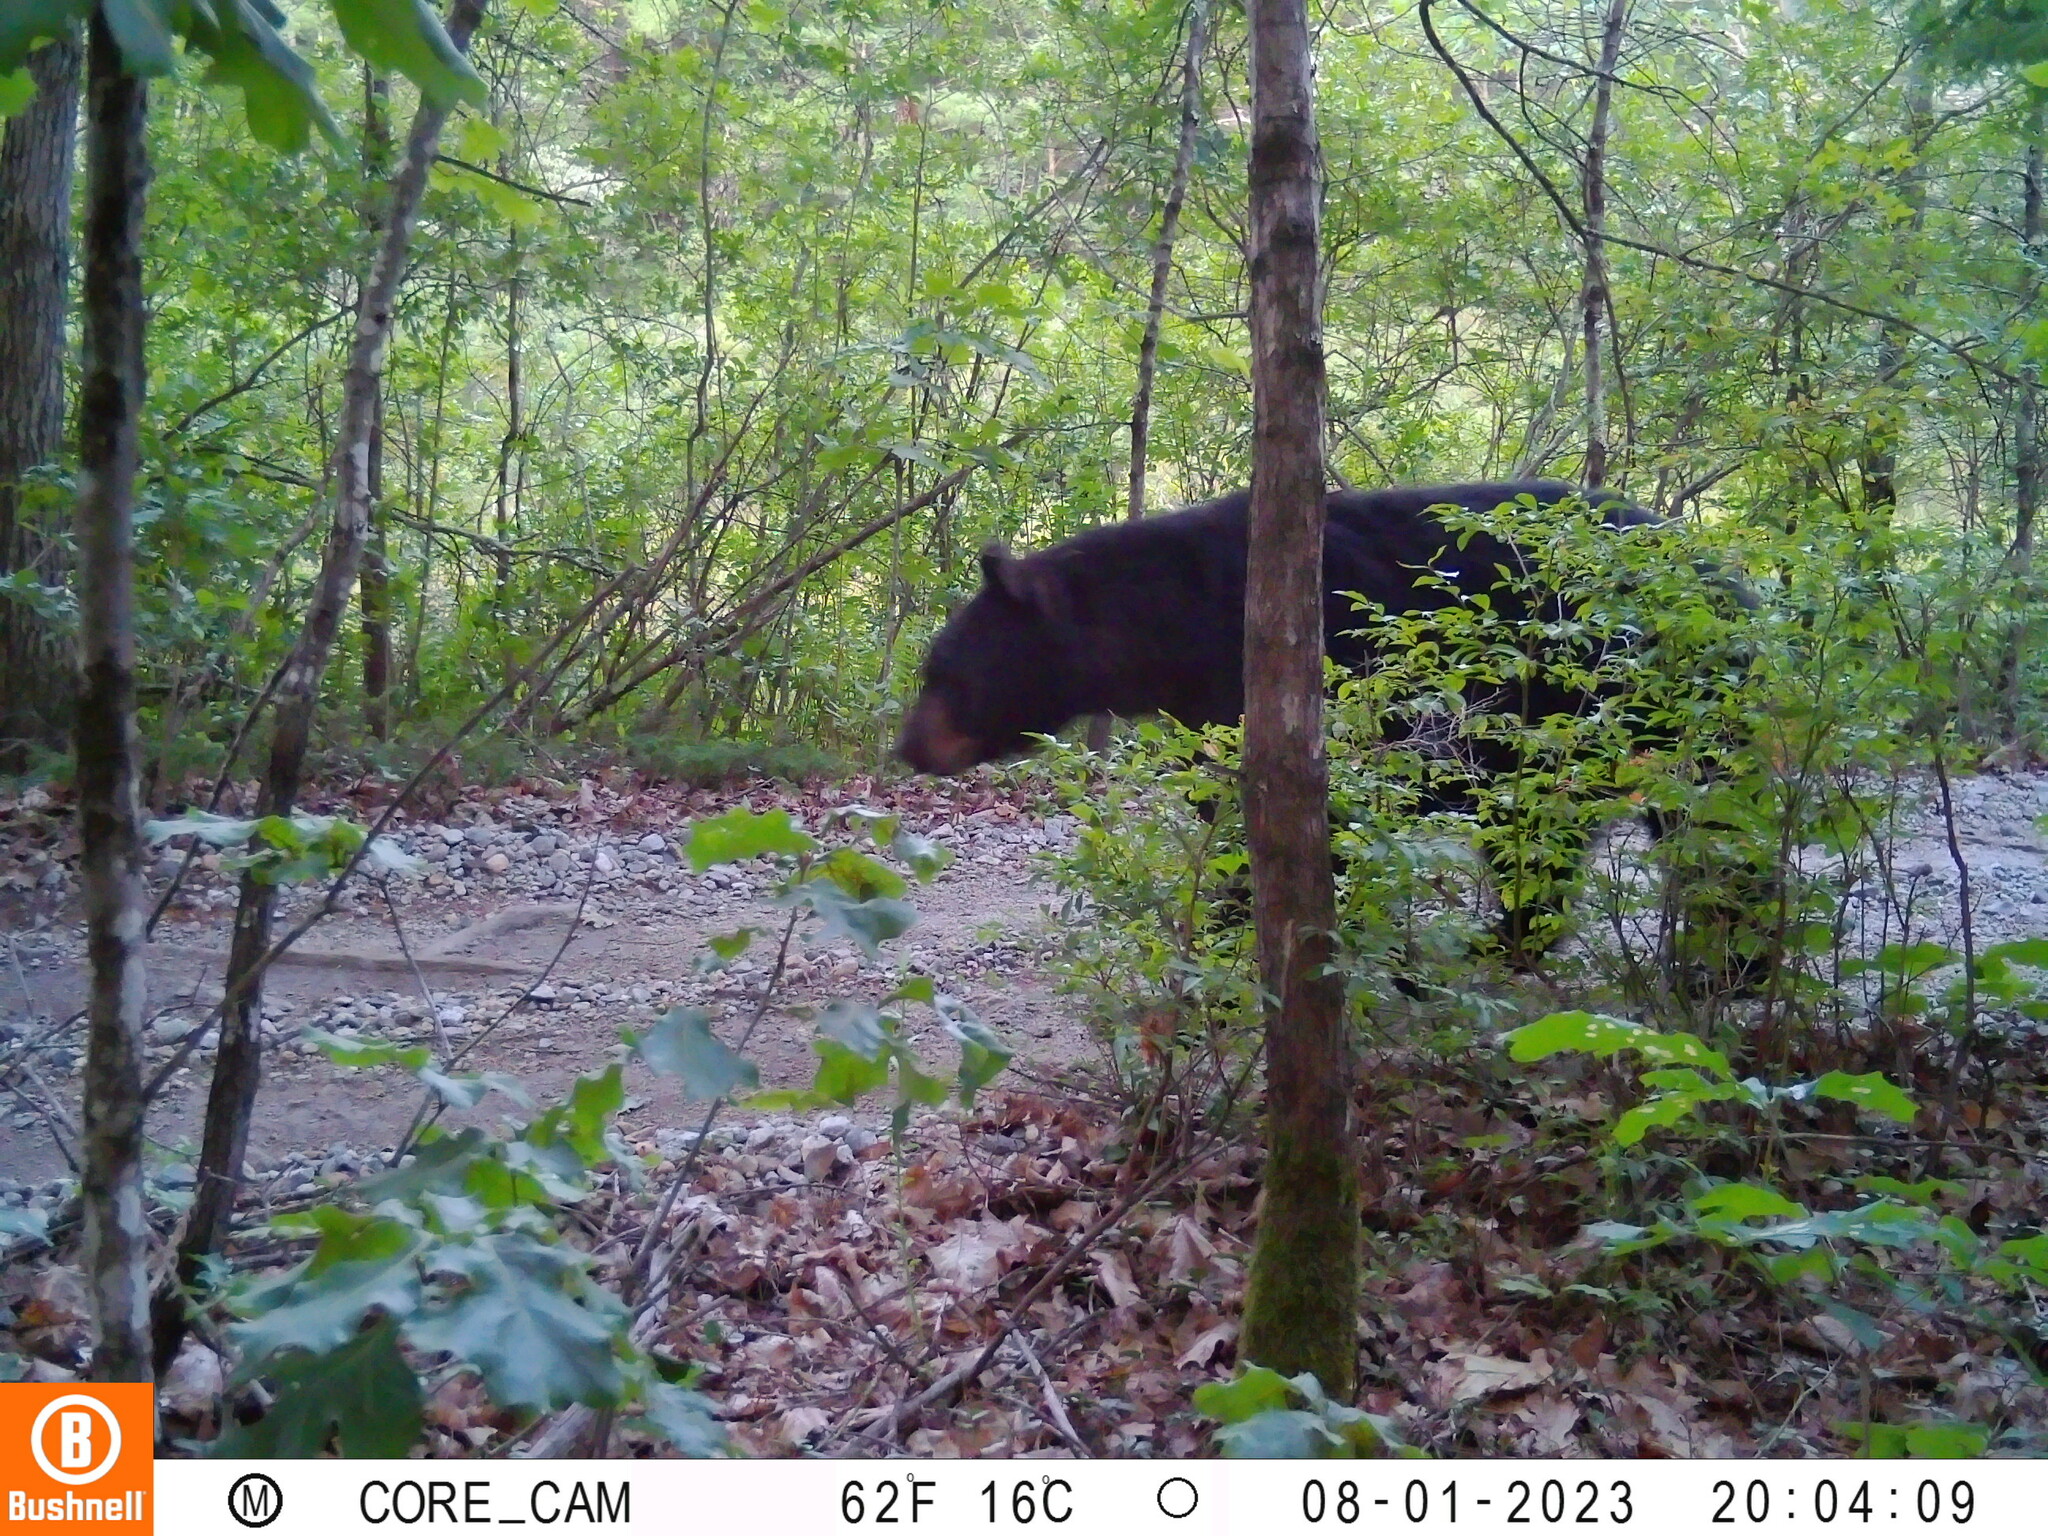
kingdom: Animalia
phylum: Chordata
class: Mammalia
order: Carnivora
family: Ursidae
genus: Ursus
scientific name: Ursus americanus
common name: American black bear
